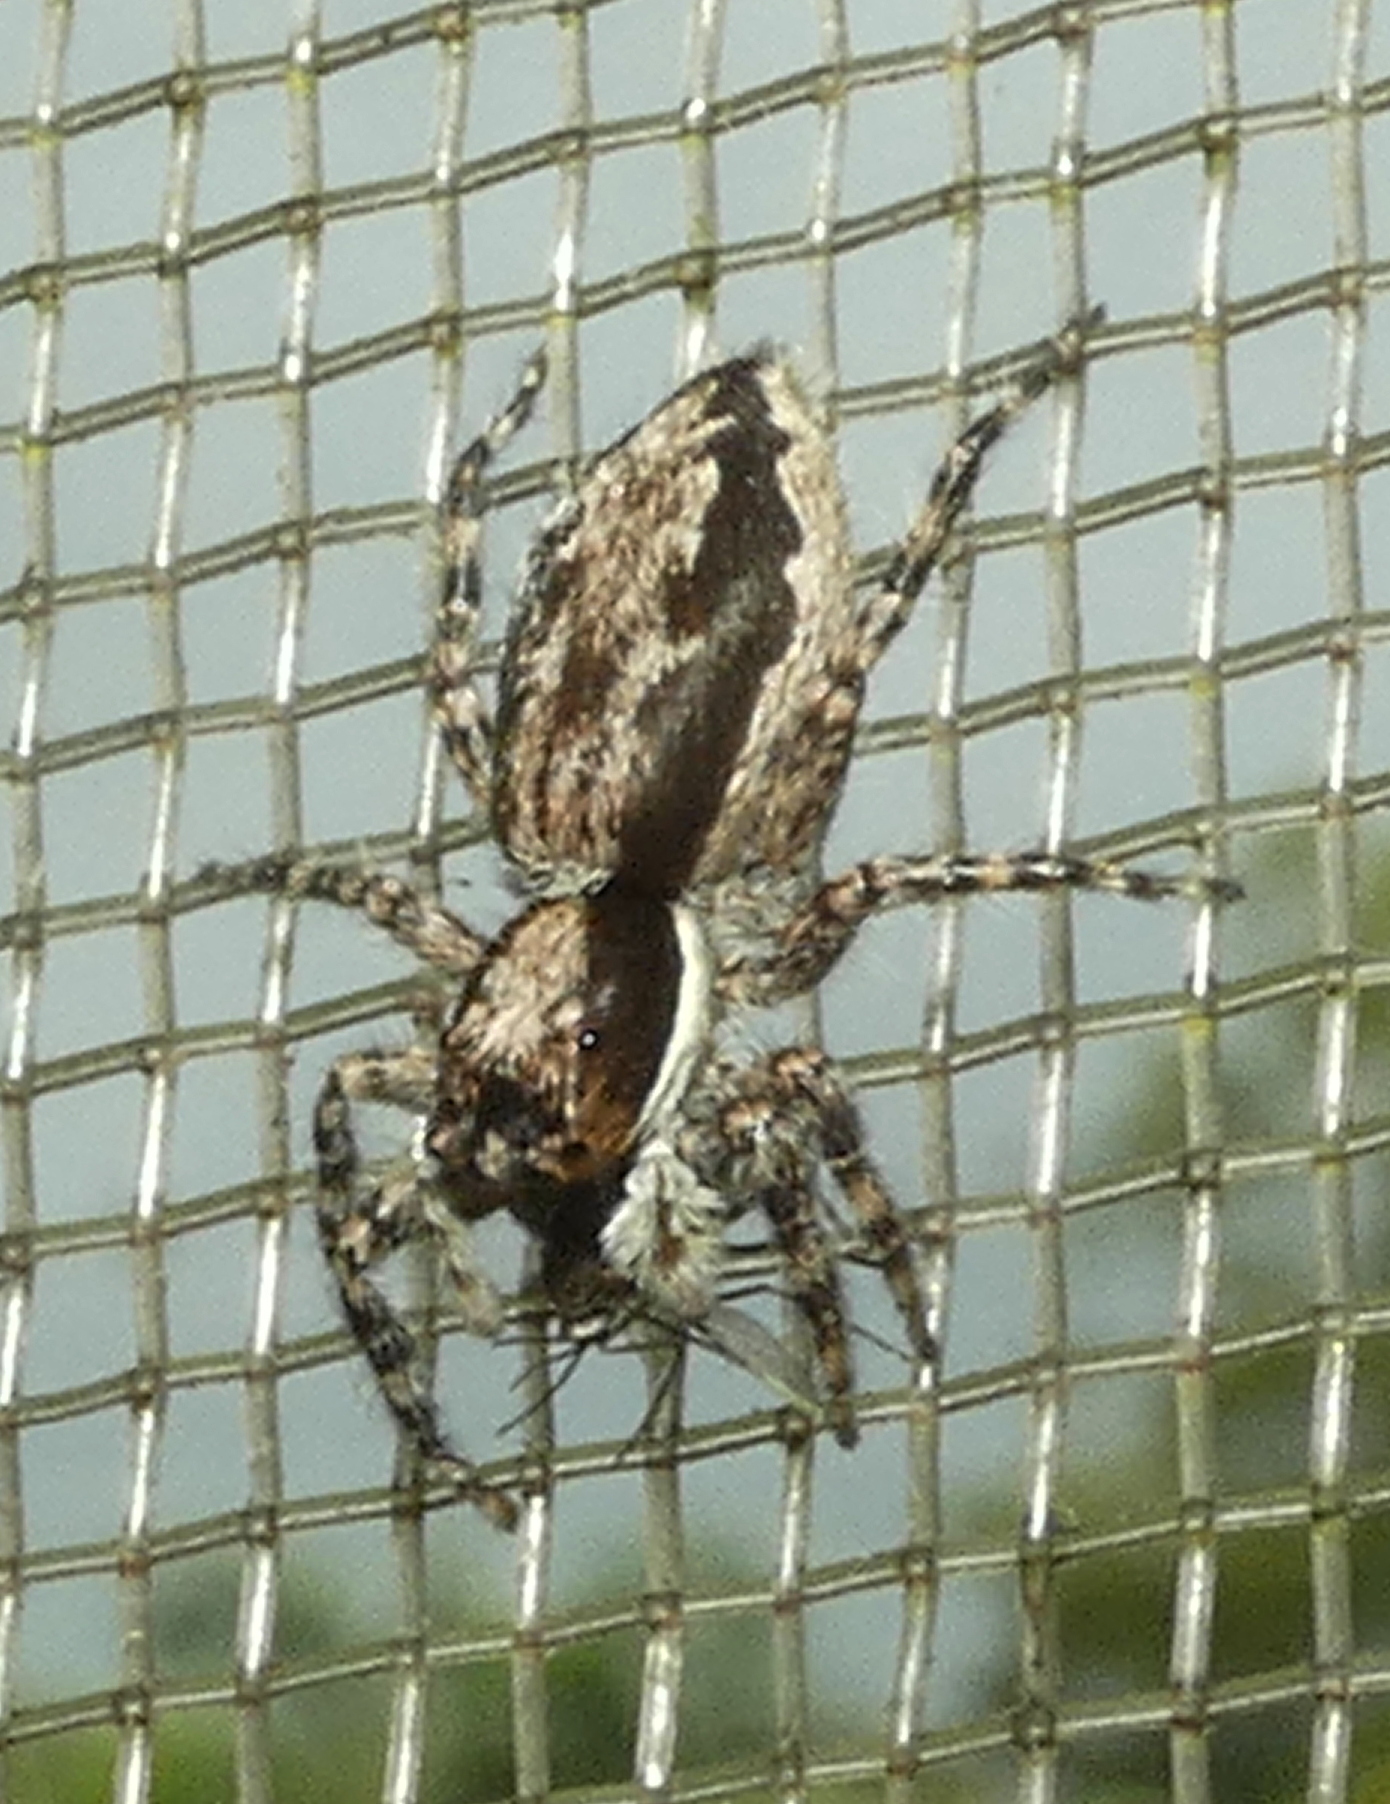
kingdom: Animalia
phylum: Arthropoda
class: Arachnida
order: Araneae
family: Salticidae
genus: Menemerus
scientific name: Menemerus bivittatus
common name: Gray wall jumper
